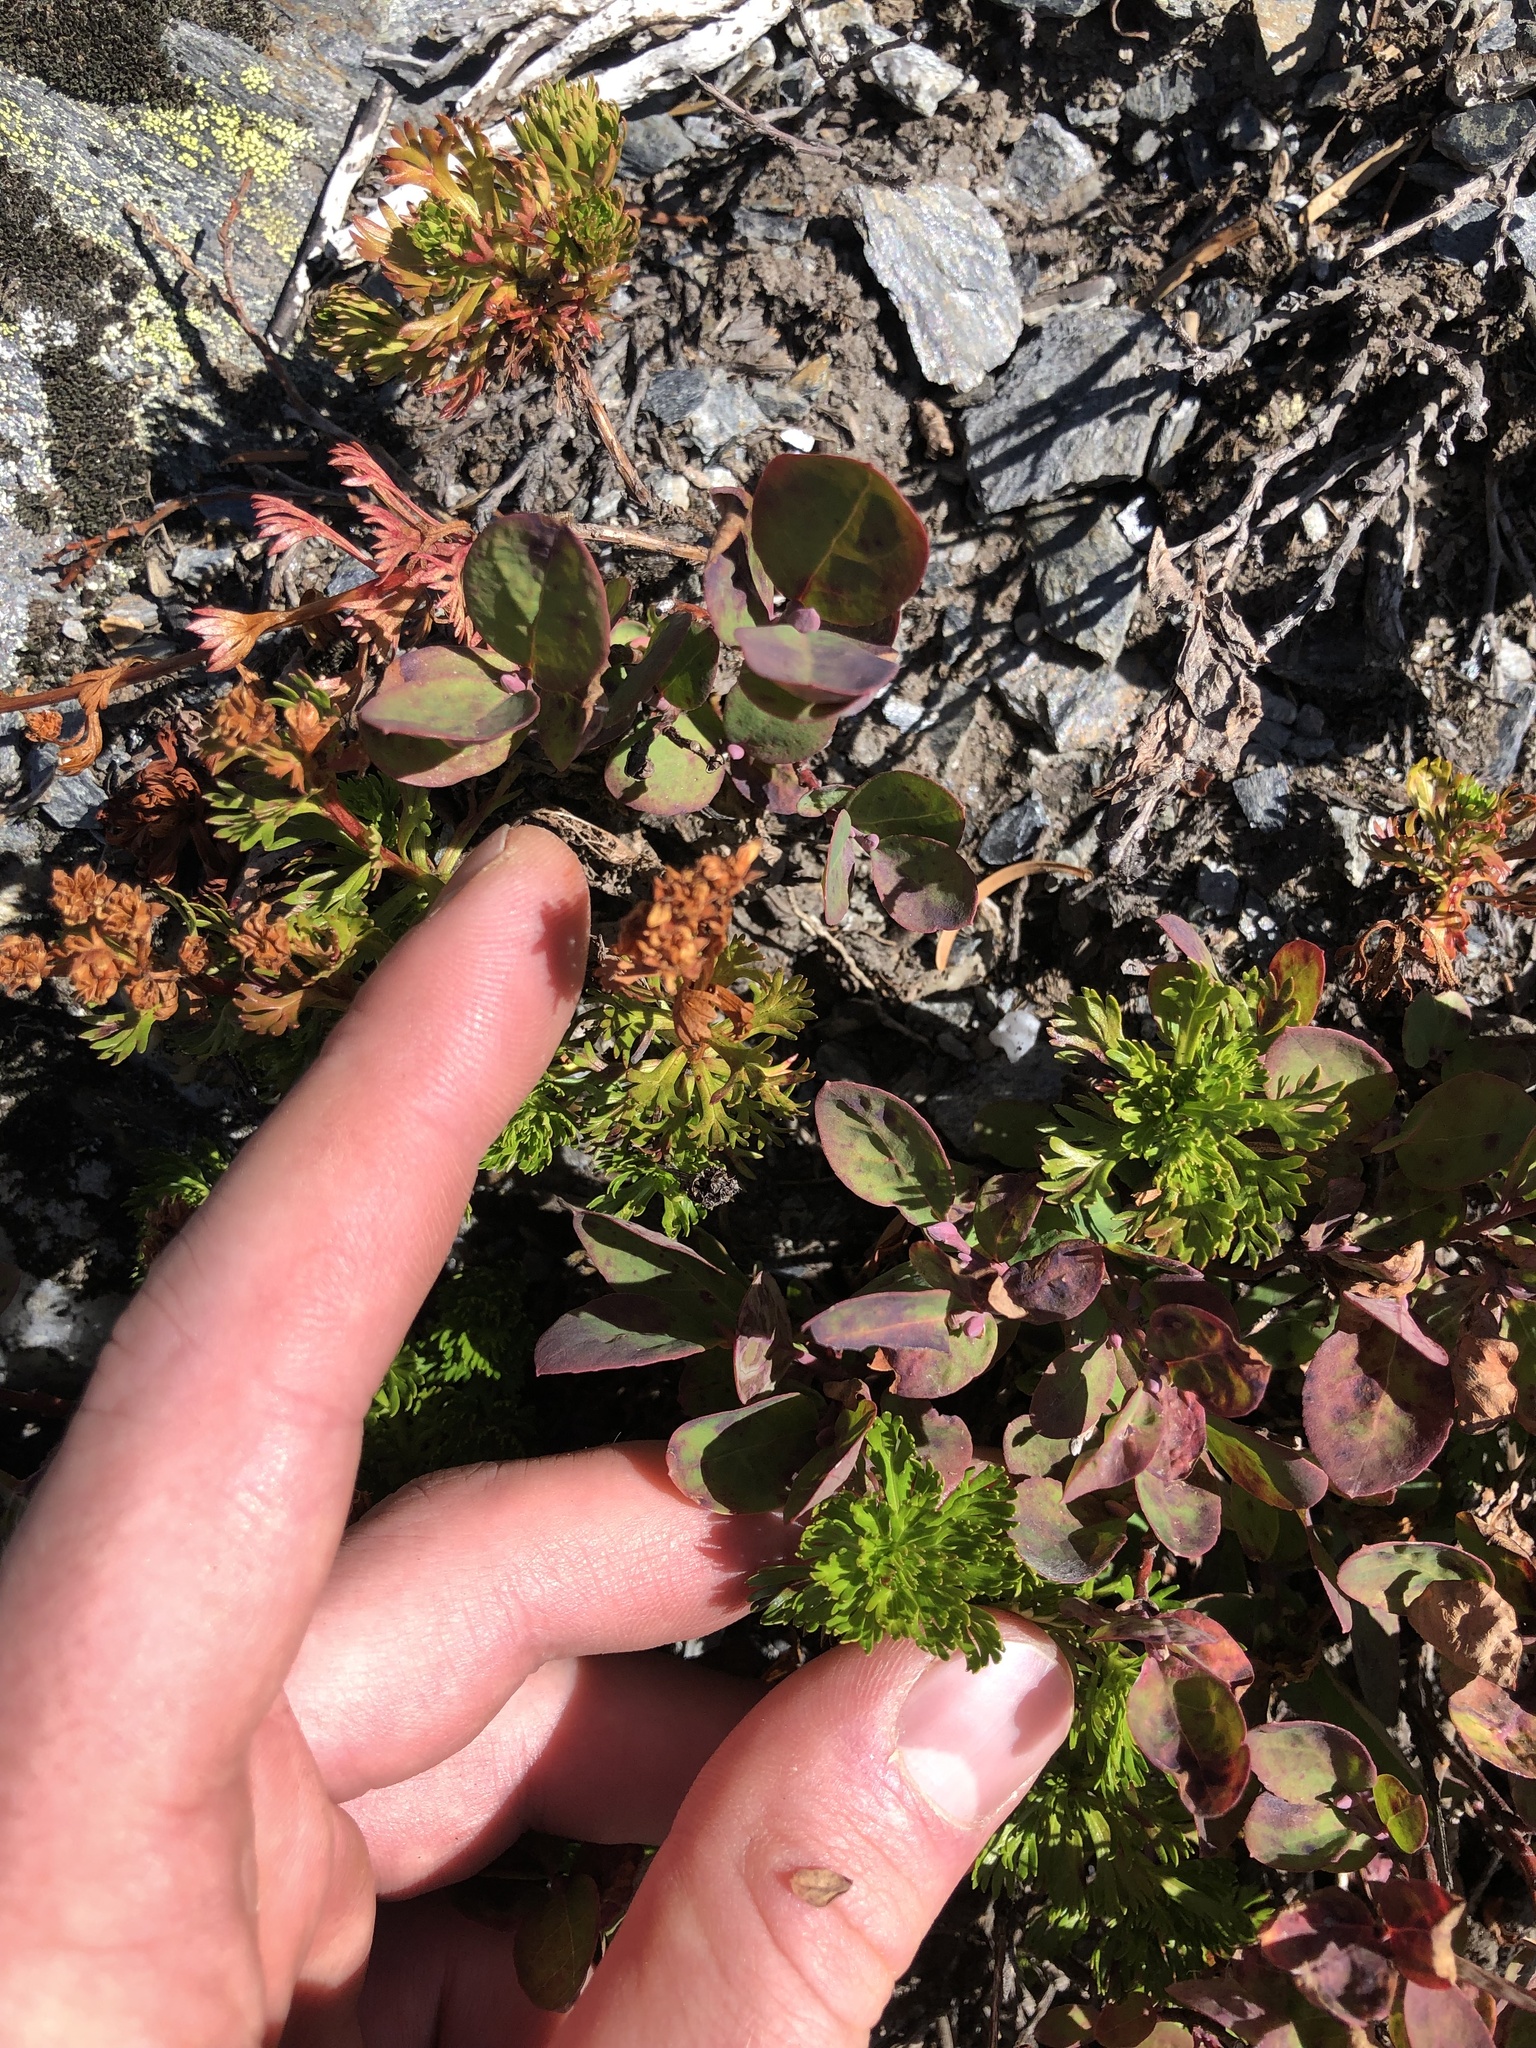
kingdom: Plantae
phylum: Tracheophyta
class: Magnoliopsida
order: Rosales
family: Rosaceae
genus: Luetkea
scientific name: Luetkea pectinata
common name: Partridgefoot
